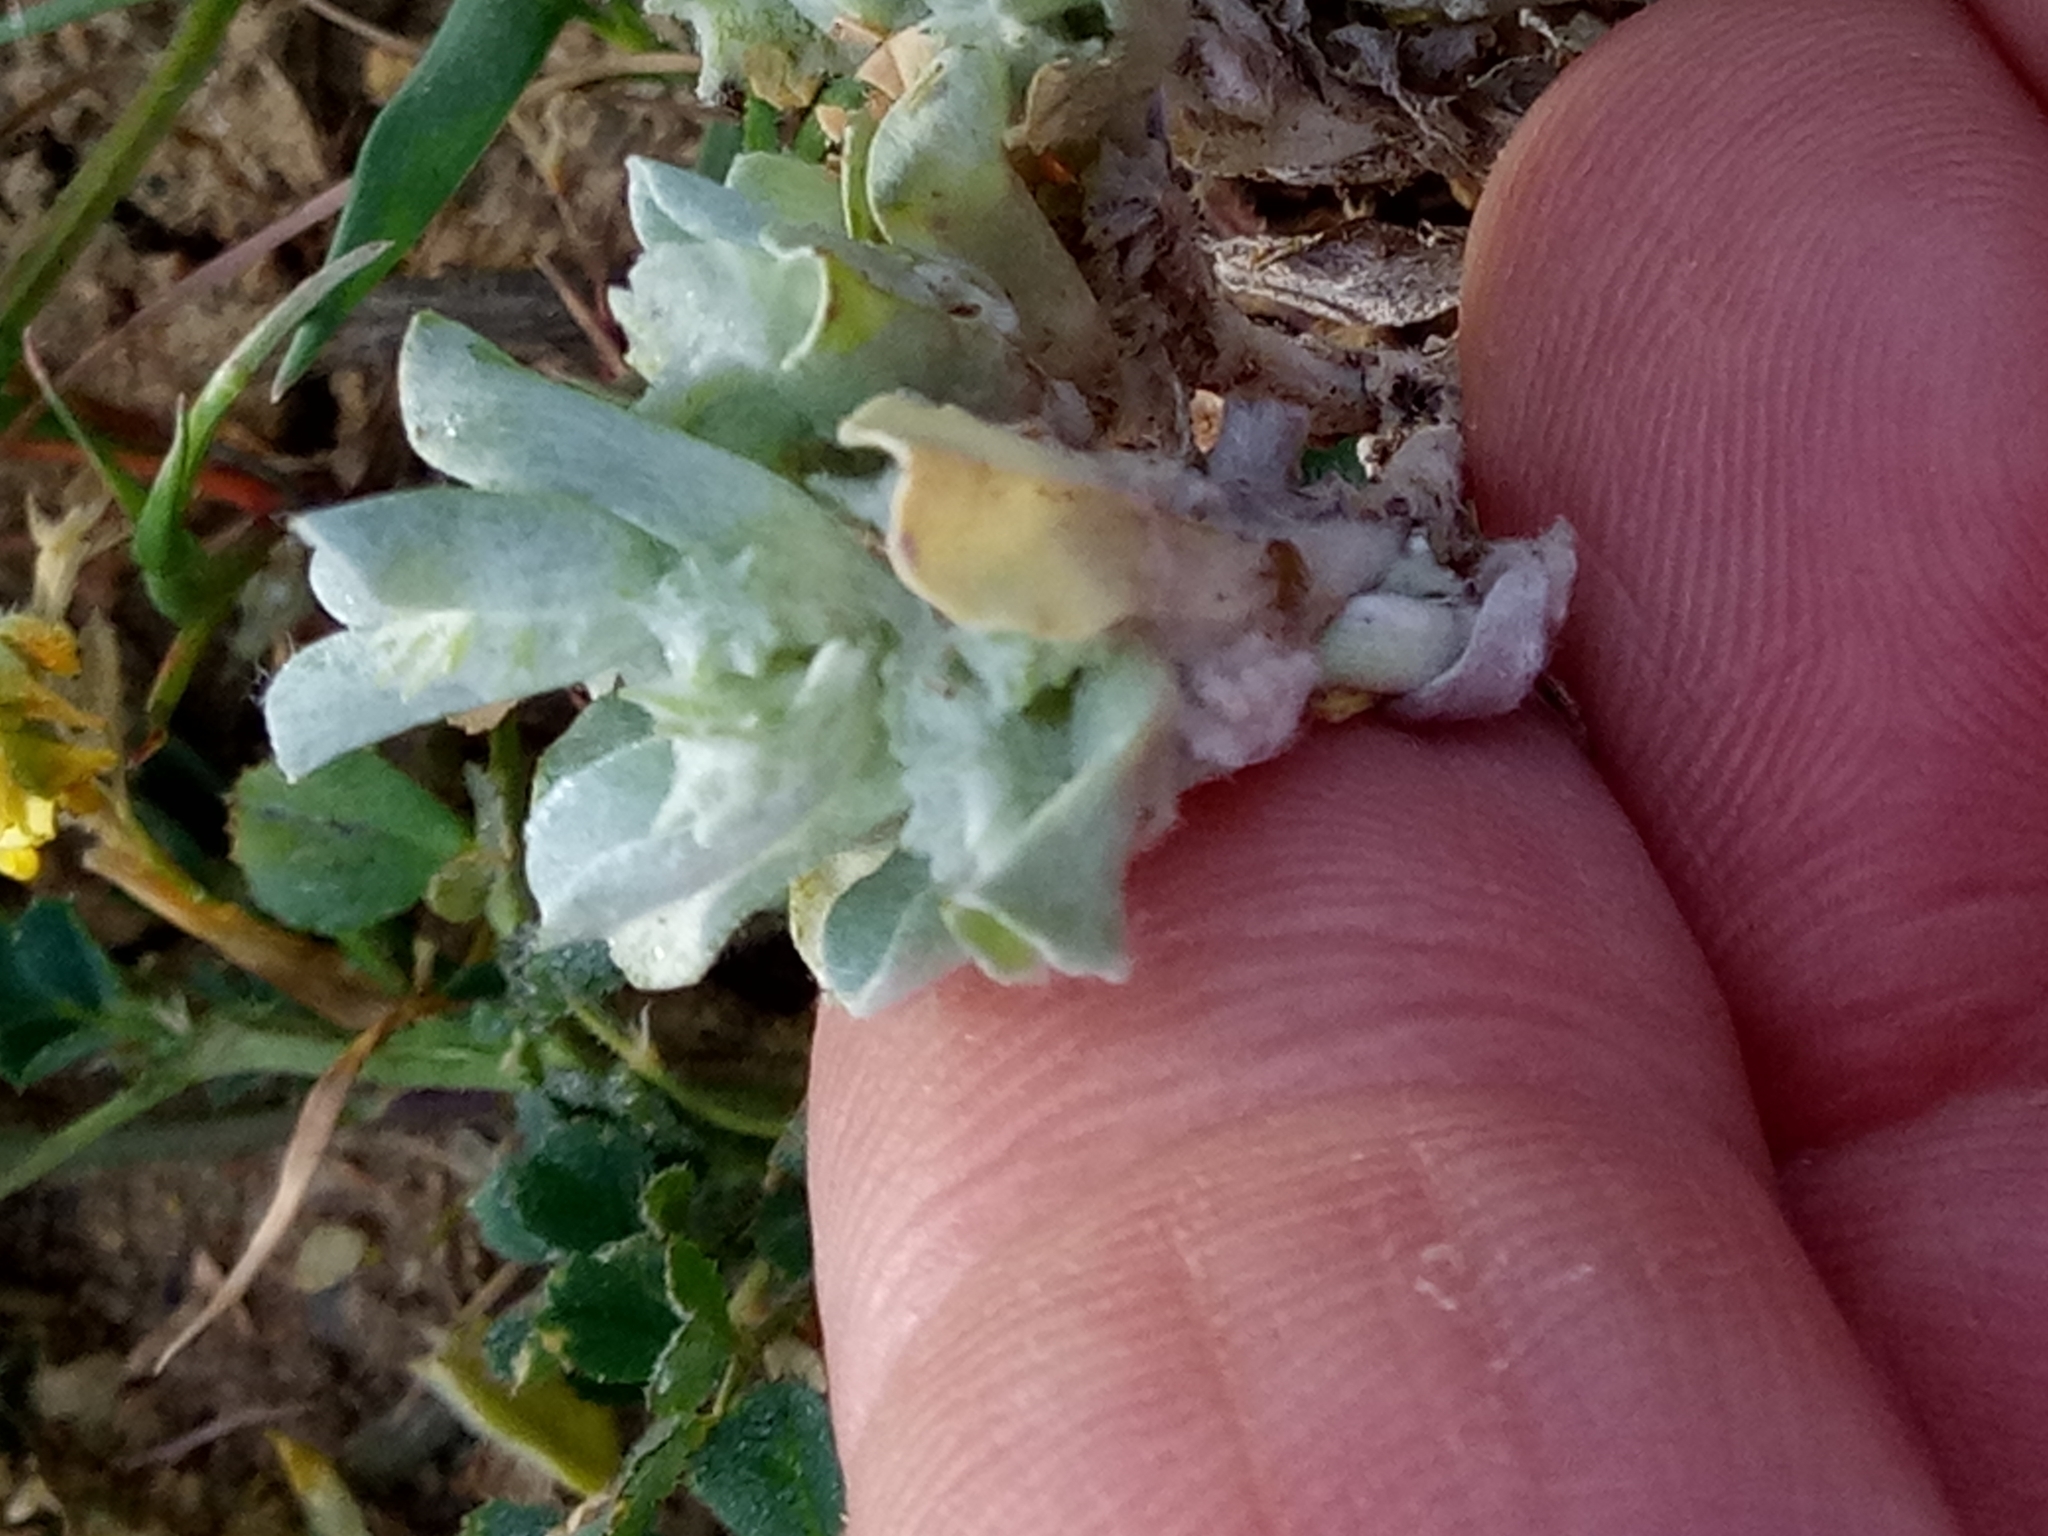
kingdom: Plantae
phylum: Tracheophyta
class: Magnoliopsida
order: Asterales
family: Asteraceae
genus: Micropus
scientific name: Micropus supinus
